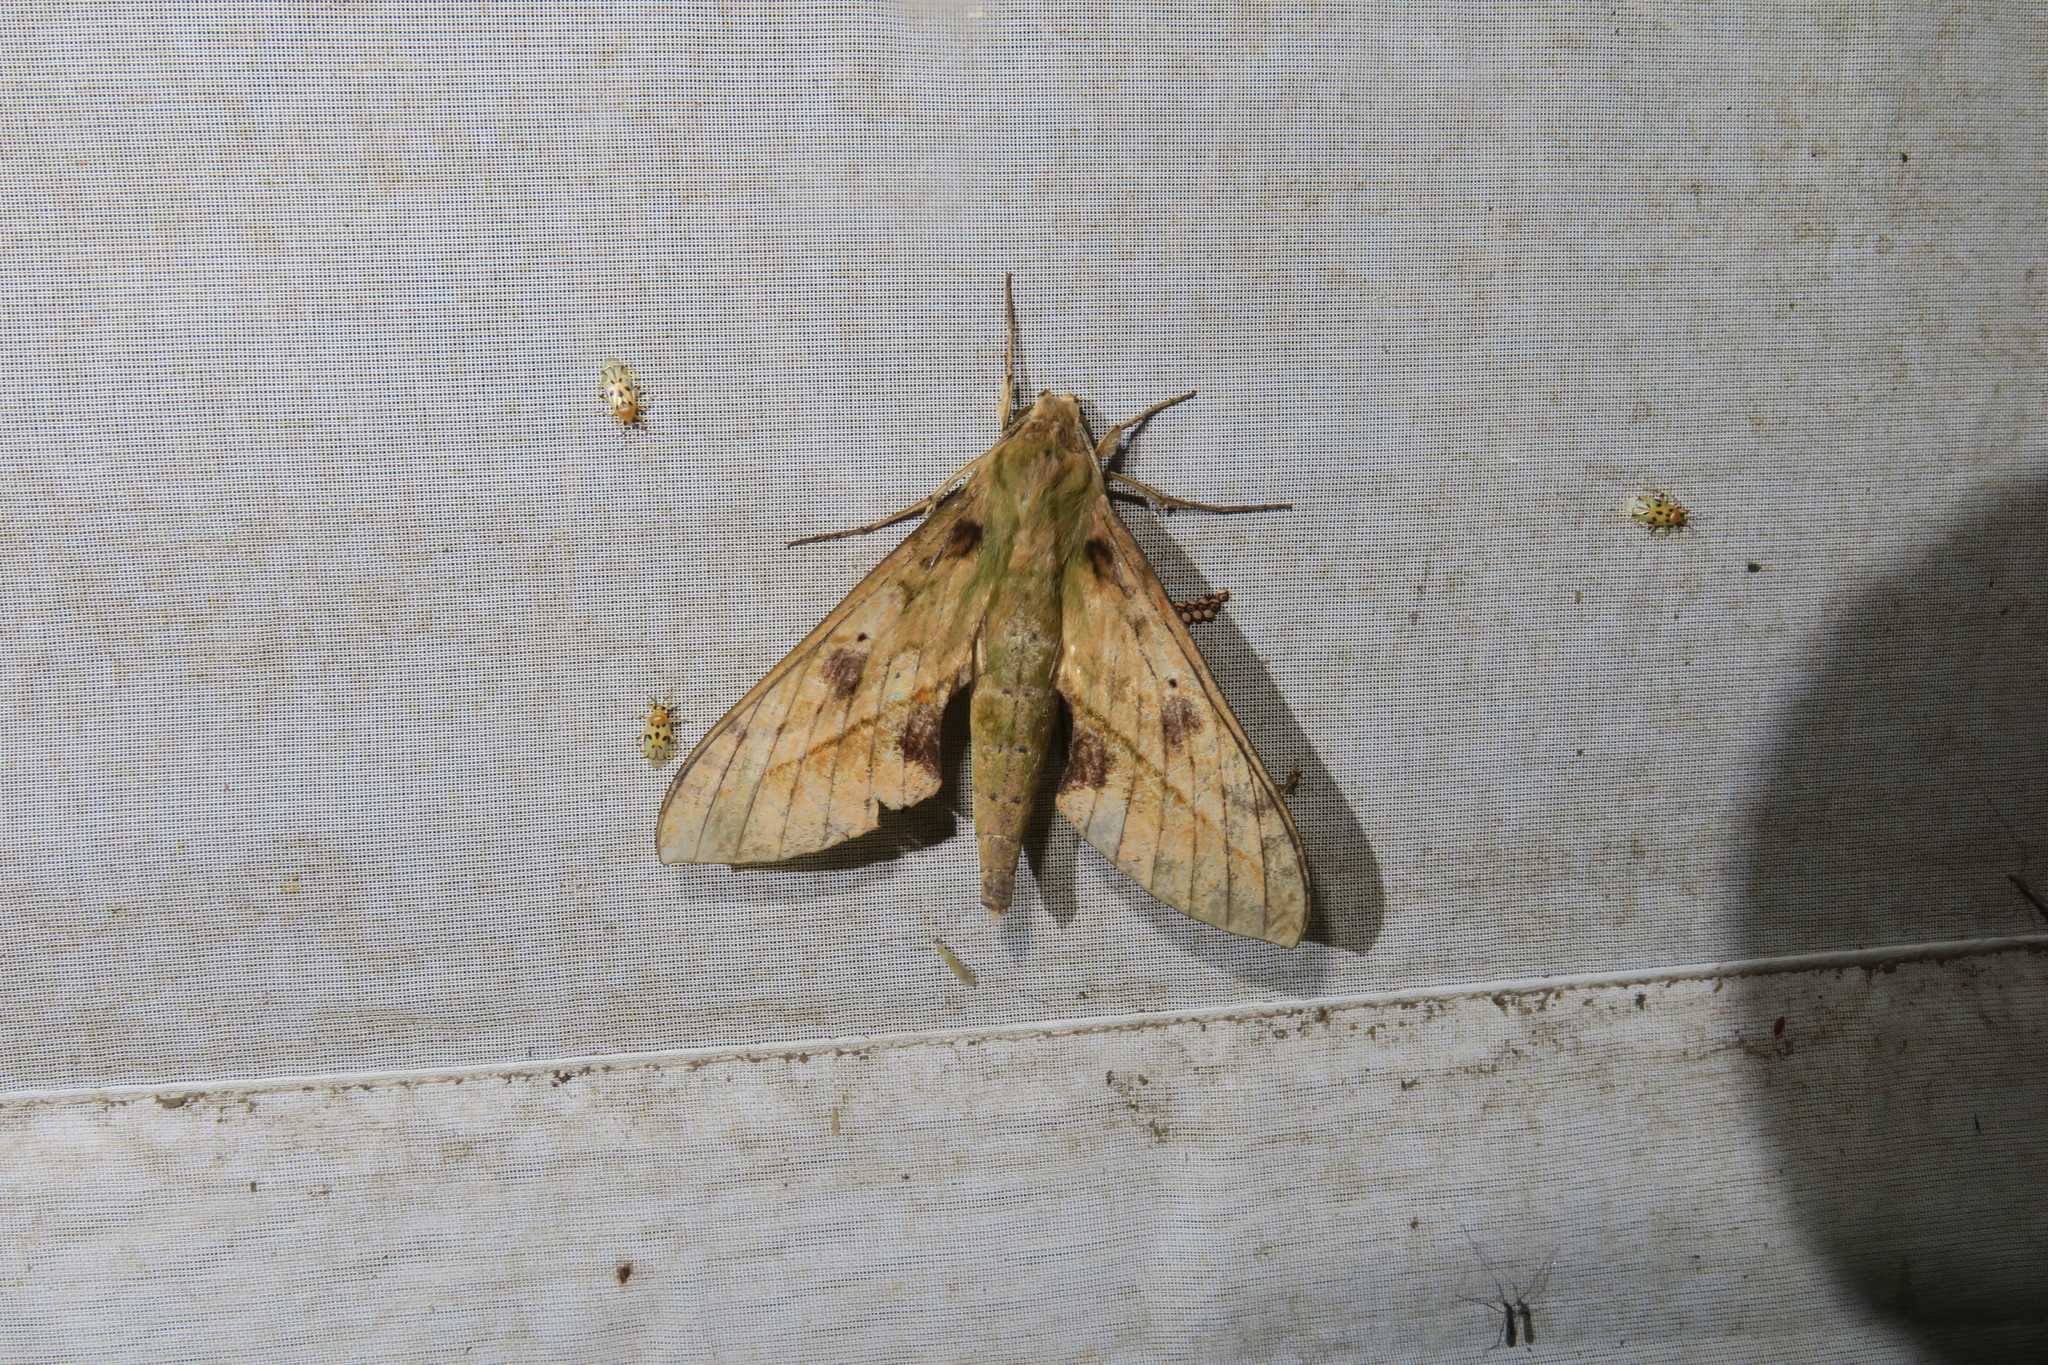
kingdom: Animalia
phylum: Arthropoda
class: Insecta
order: Lepidoptera
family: Sphingidae
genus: Xylophanes
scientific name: Xylophanes macasensis
